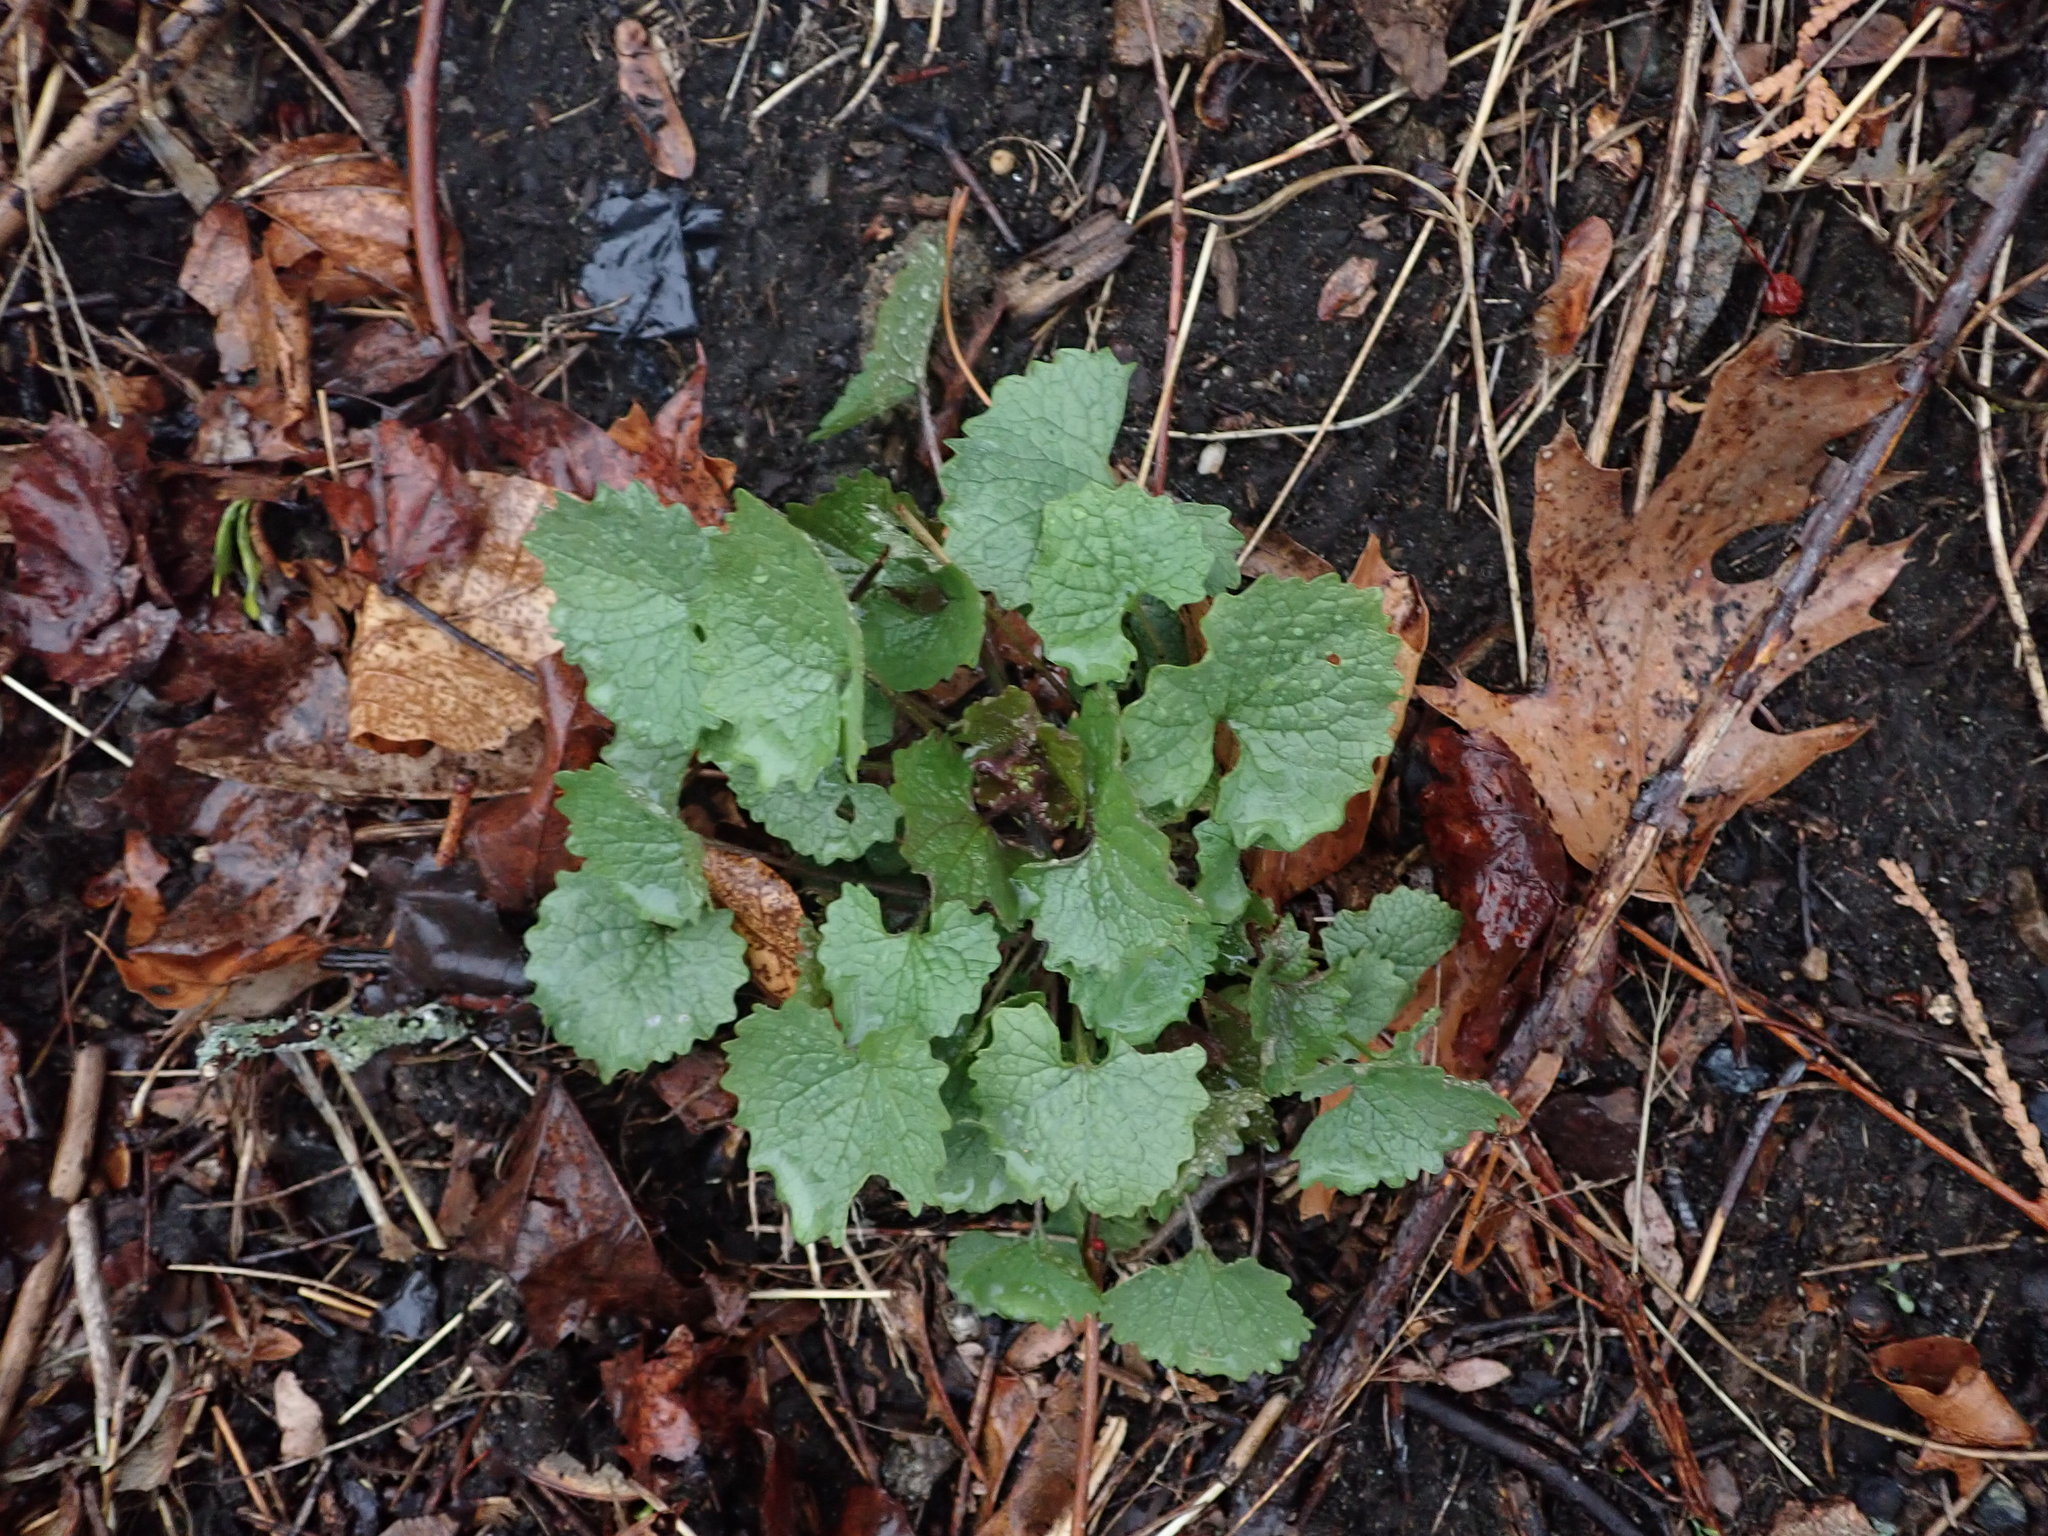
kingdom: Plantae
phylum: Tracheophyta
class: Magnoliopsida
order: Brassicales
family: Brassicaceae
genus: Alliaria
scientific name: Alliaria petiolata
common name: Garlic mustard
